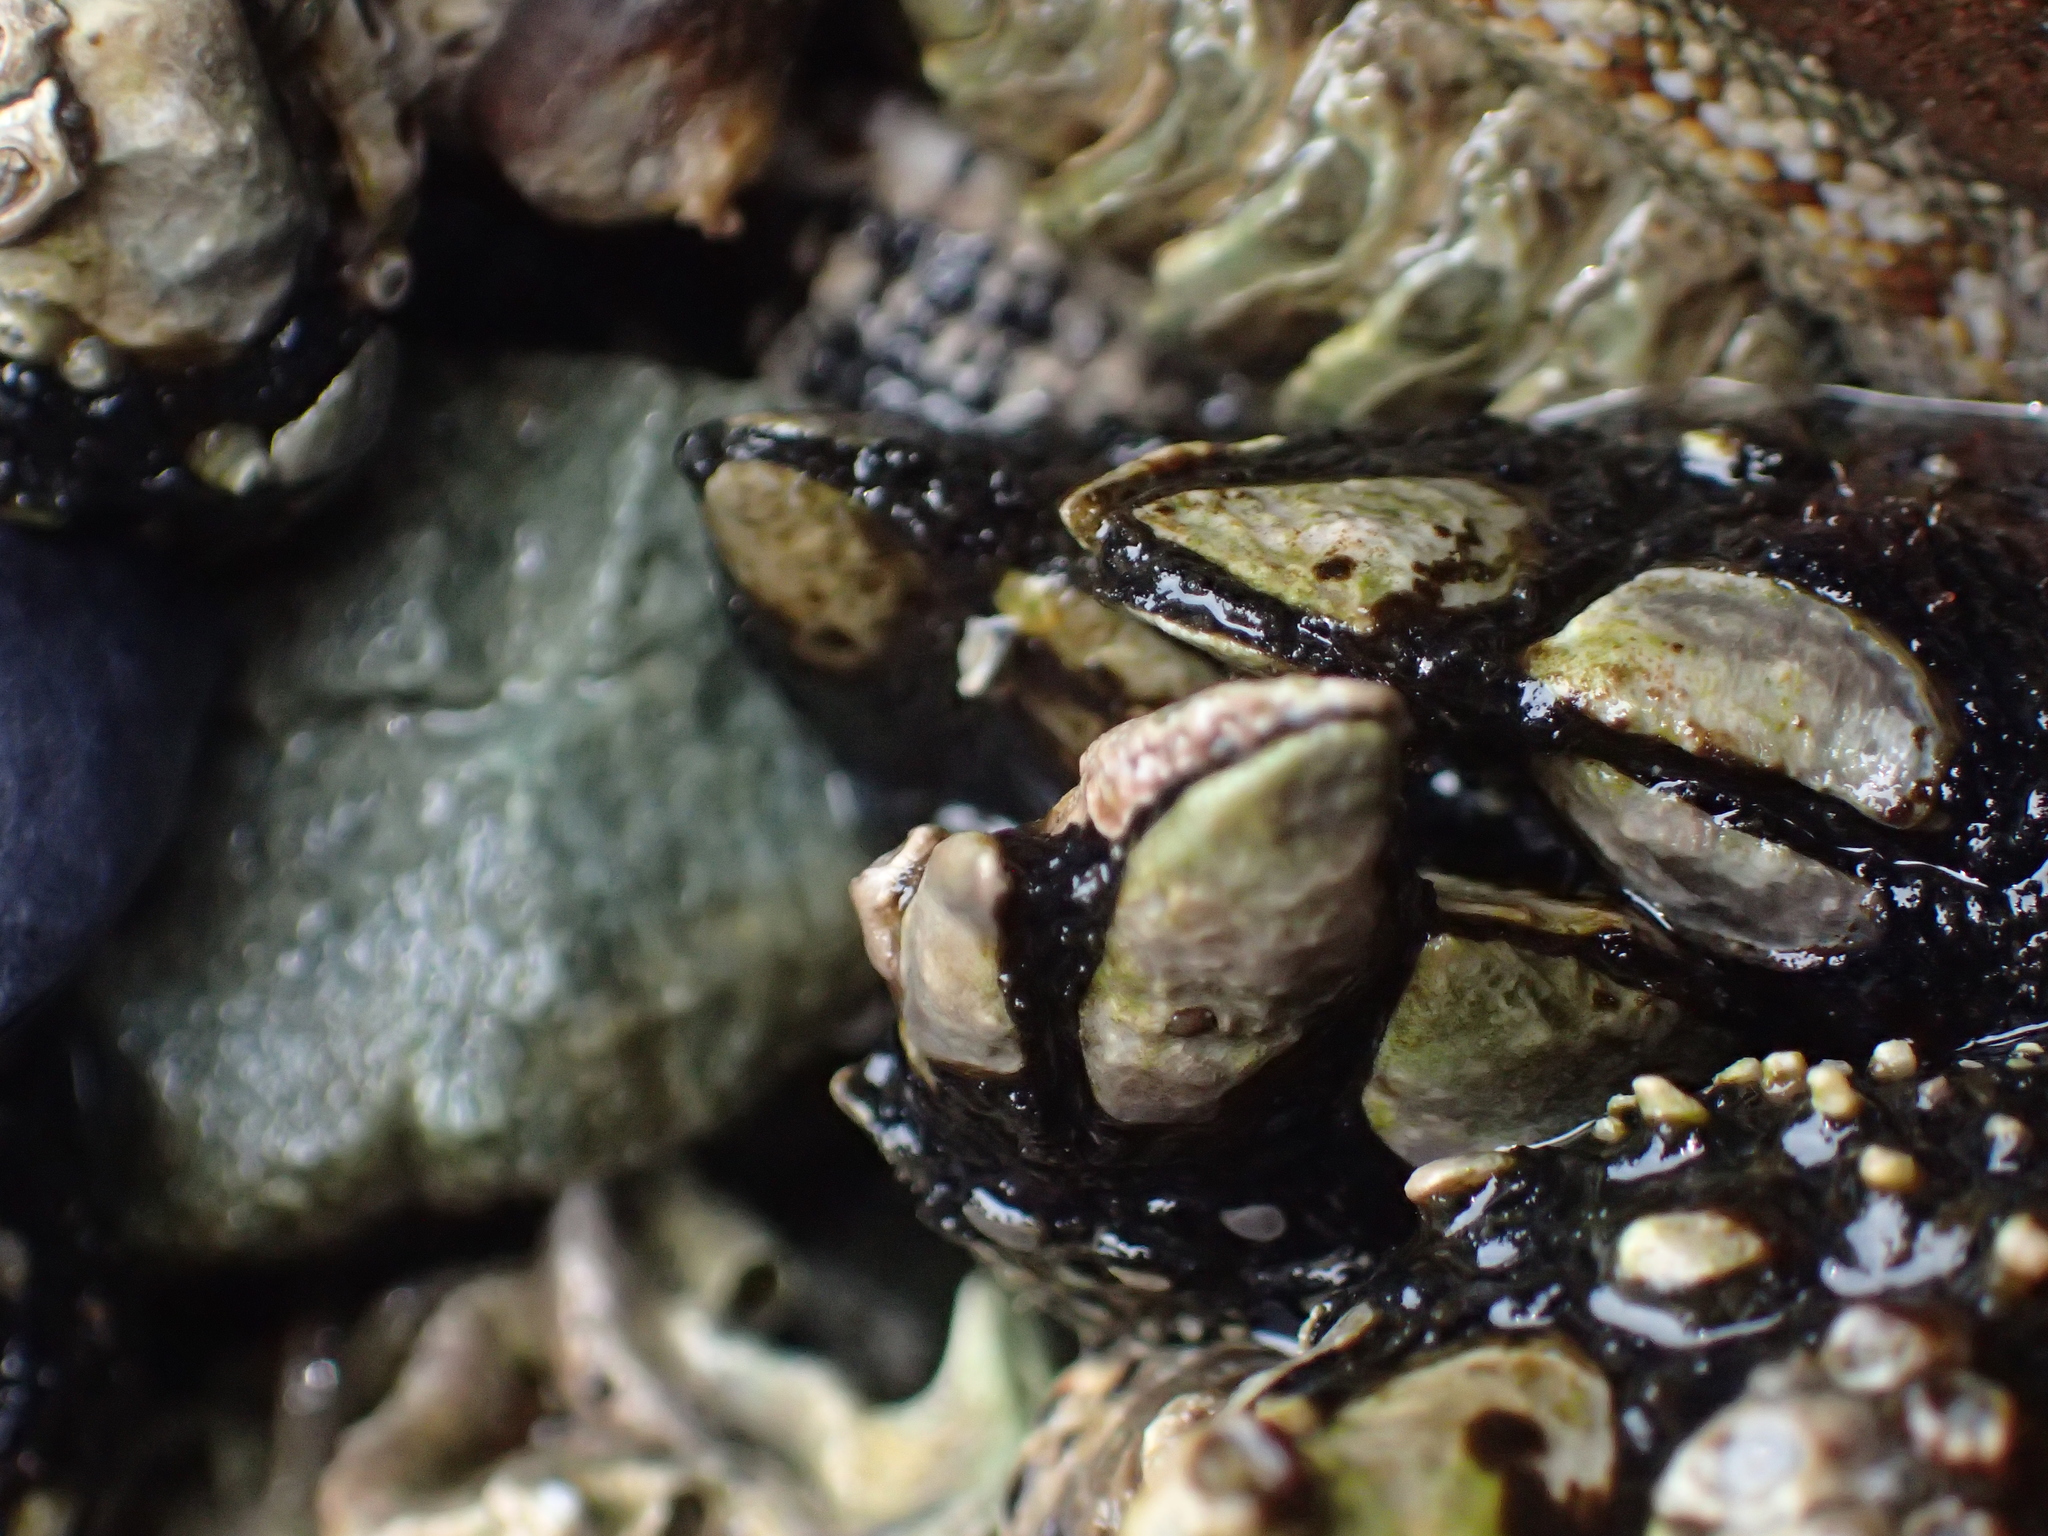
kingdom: Animalia
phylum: Arthropoda
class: Maxillopoda
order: Pedunculata
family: Calanticidae
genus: Calantica
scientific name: Calantica spinosa
